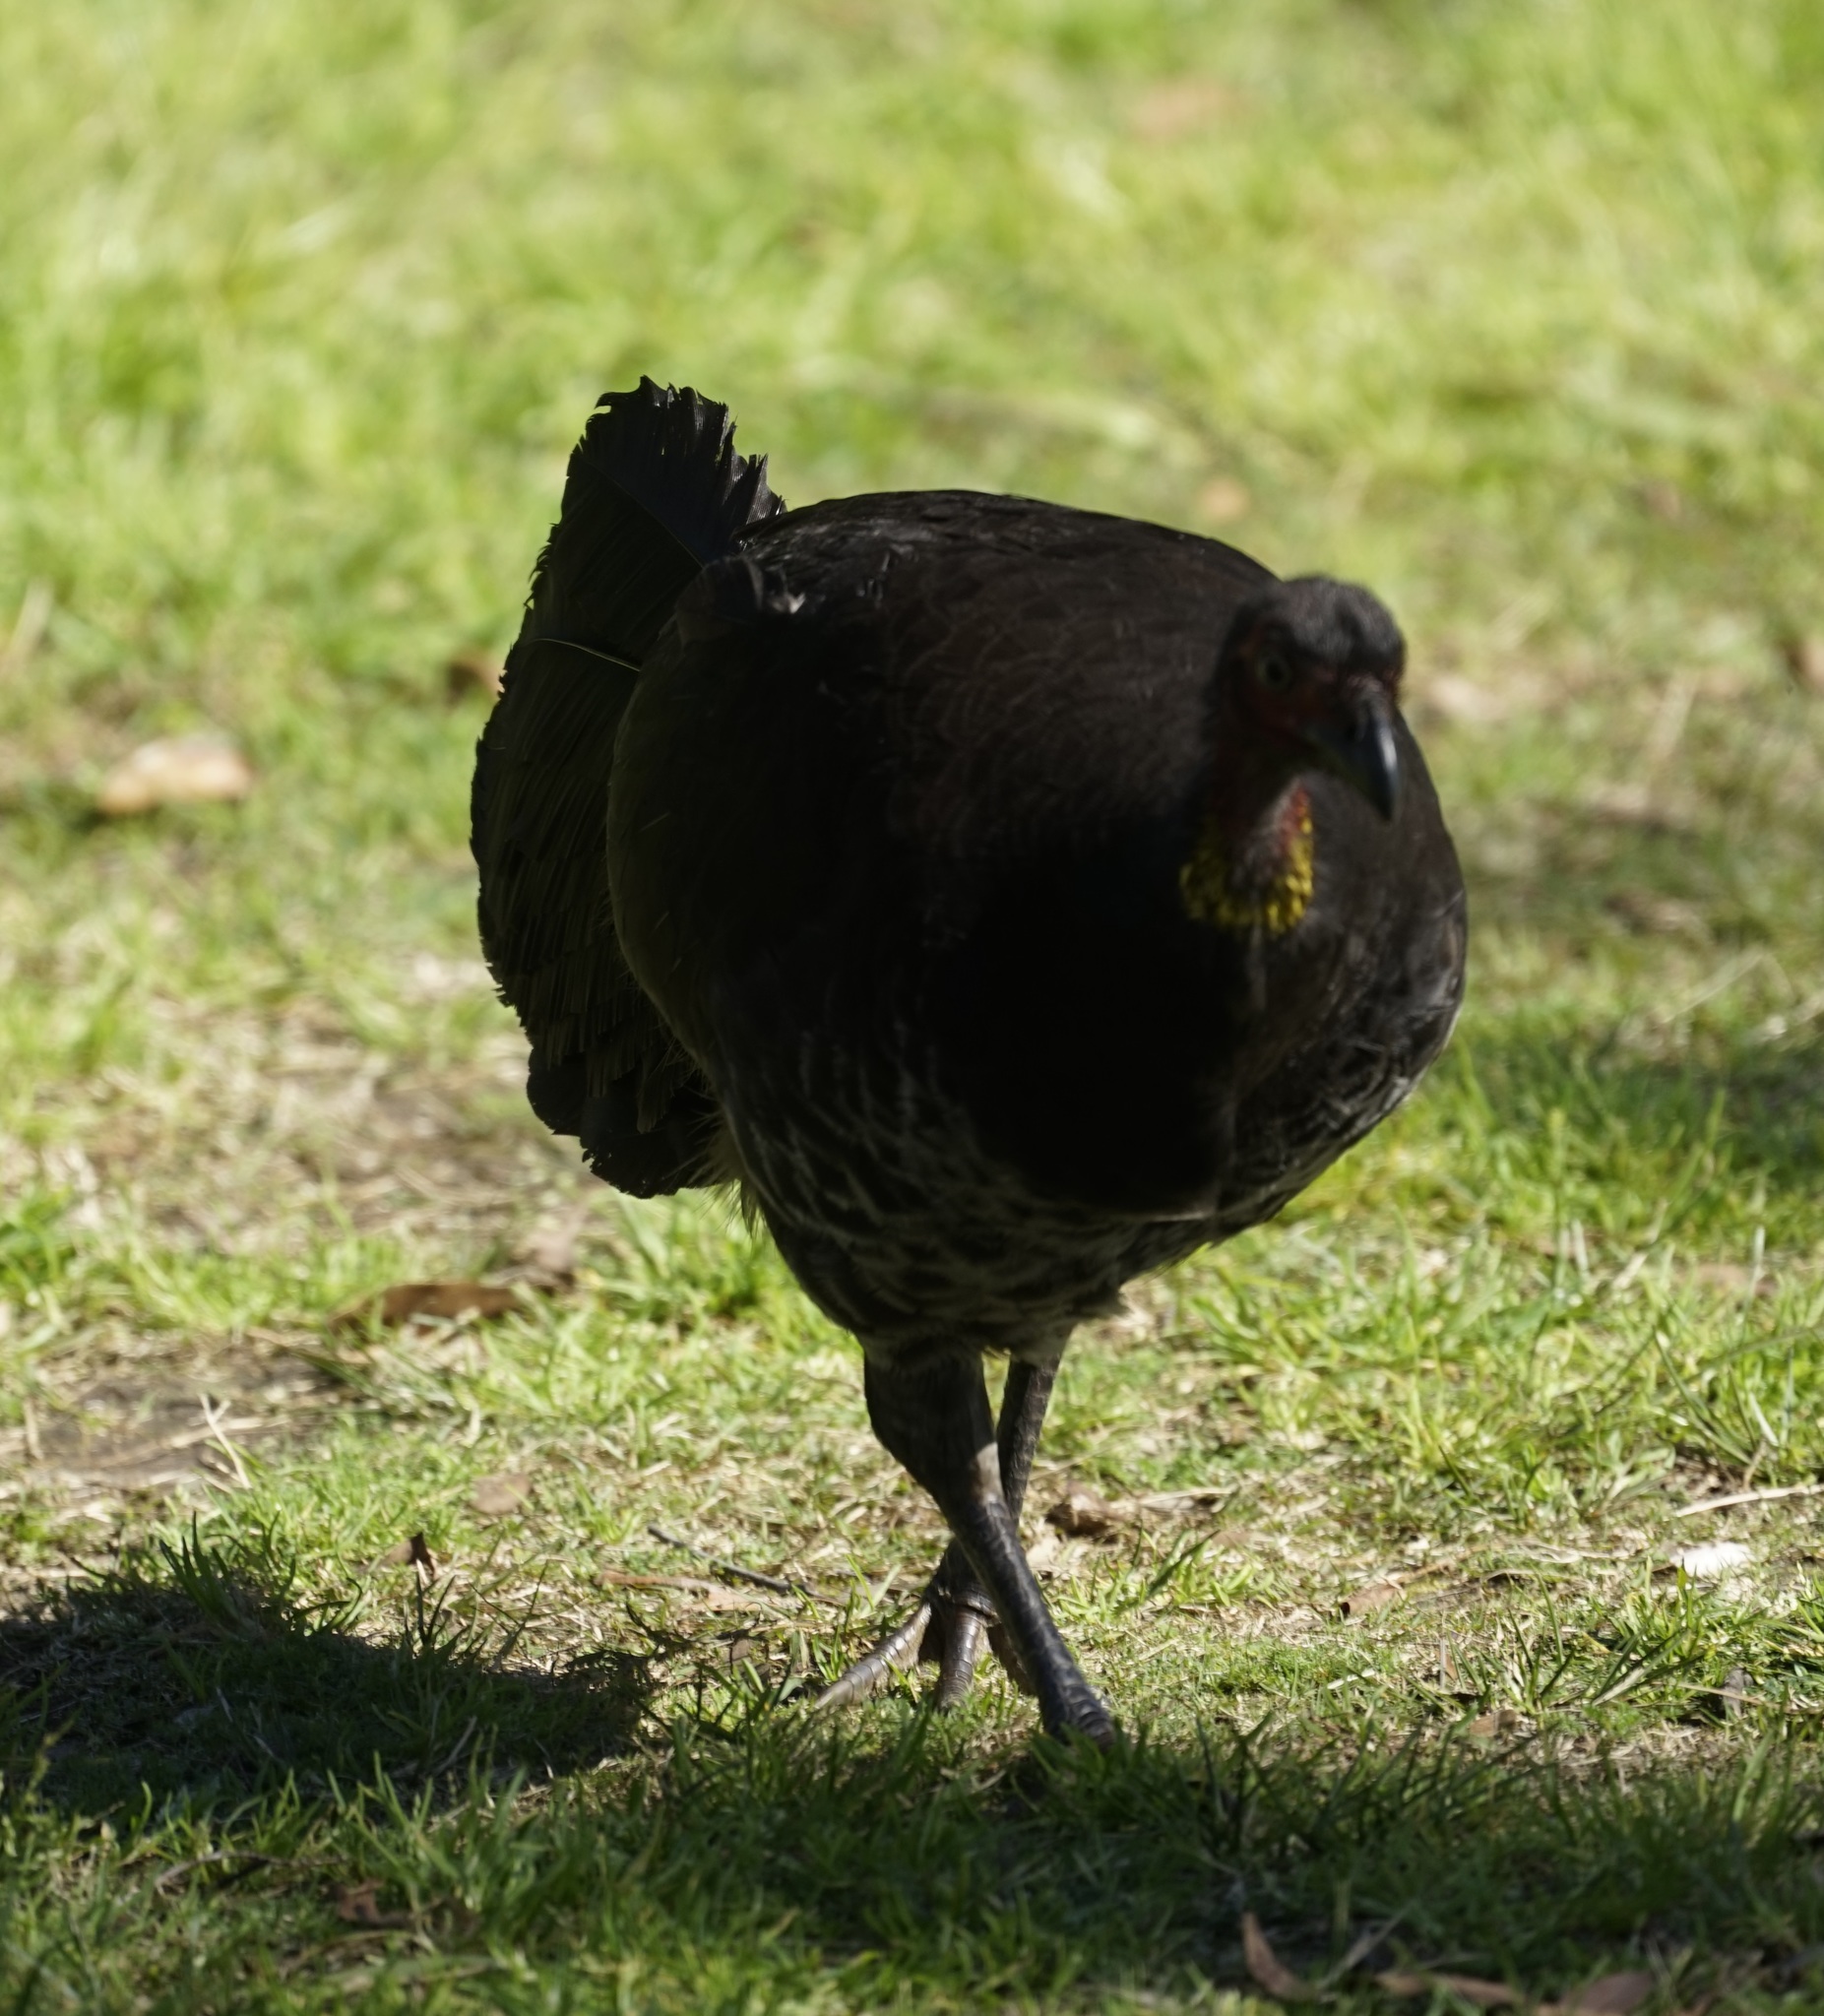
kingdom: Animalia
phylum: Chordata
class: Aves
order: Galliformes
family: Megapodiidae
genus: Alectura
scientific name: Alectura lathami
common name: Australian brushturkey
